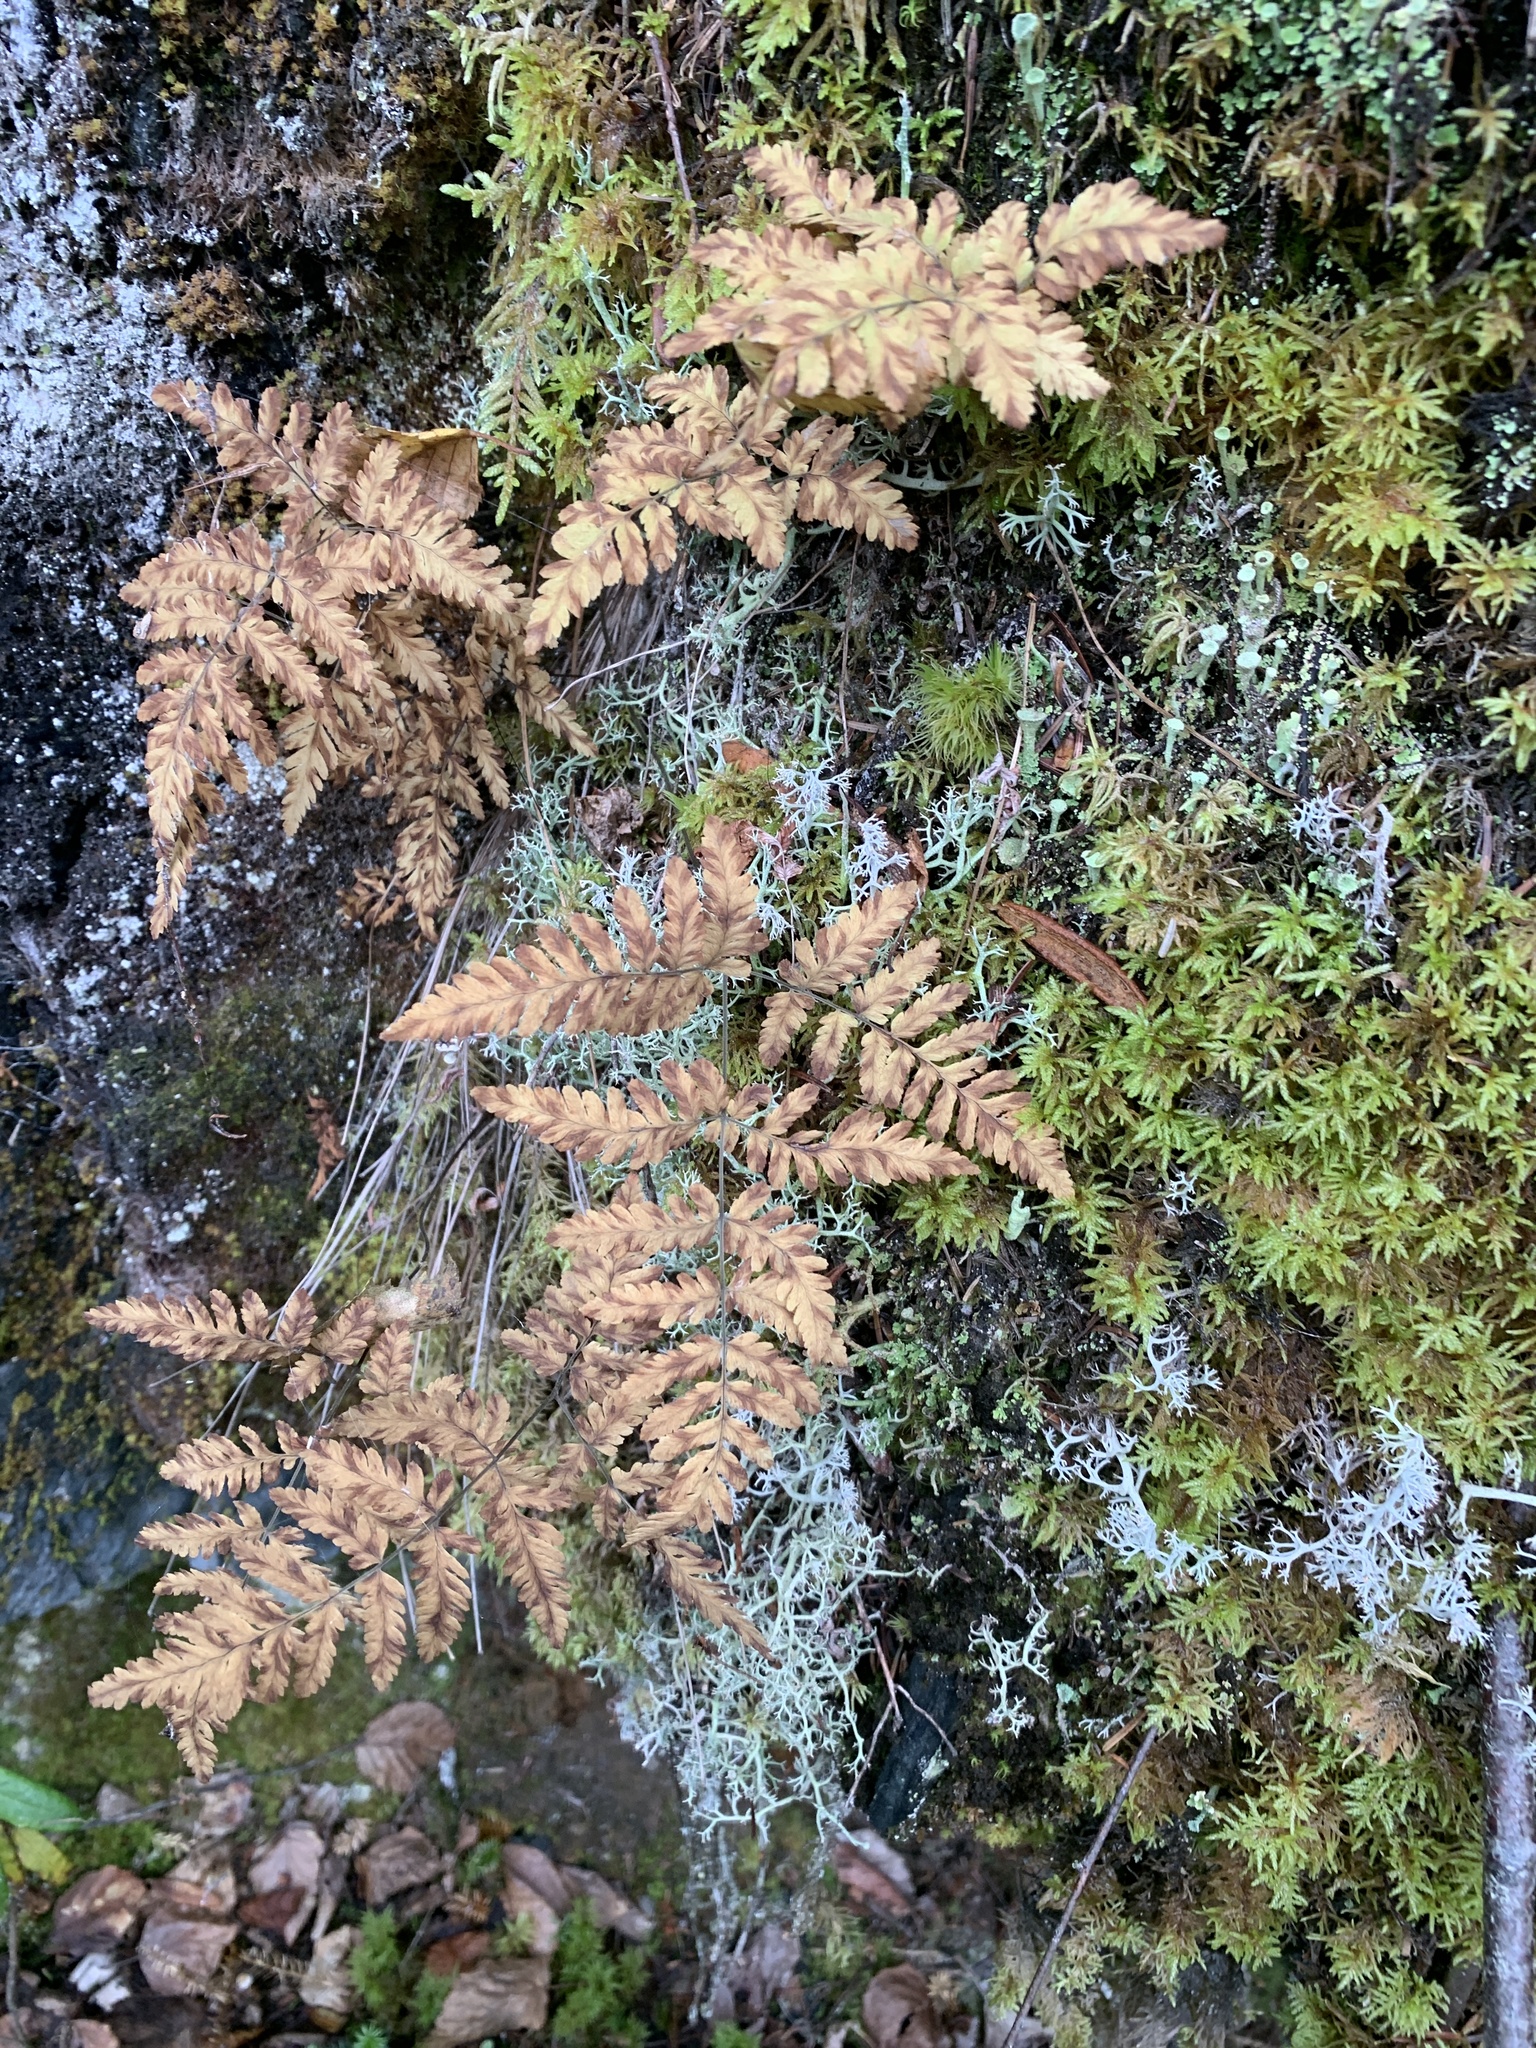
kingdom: Plantae
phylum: Tracheophyta
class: Polypodiopsida
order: Polypodiales
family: Cystopteridaceae
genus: Gymnocarpium
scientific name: Gymnocarpium continentale
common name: Asian oak fern
